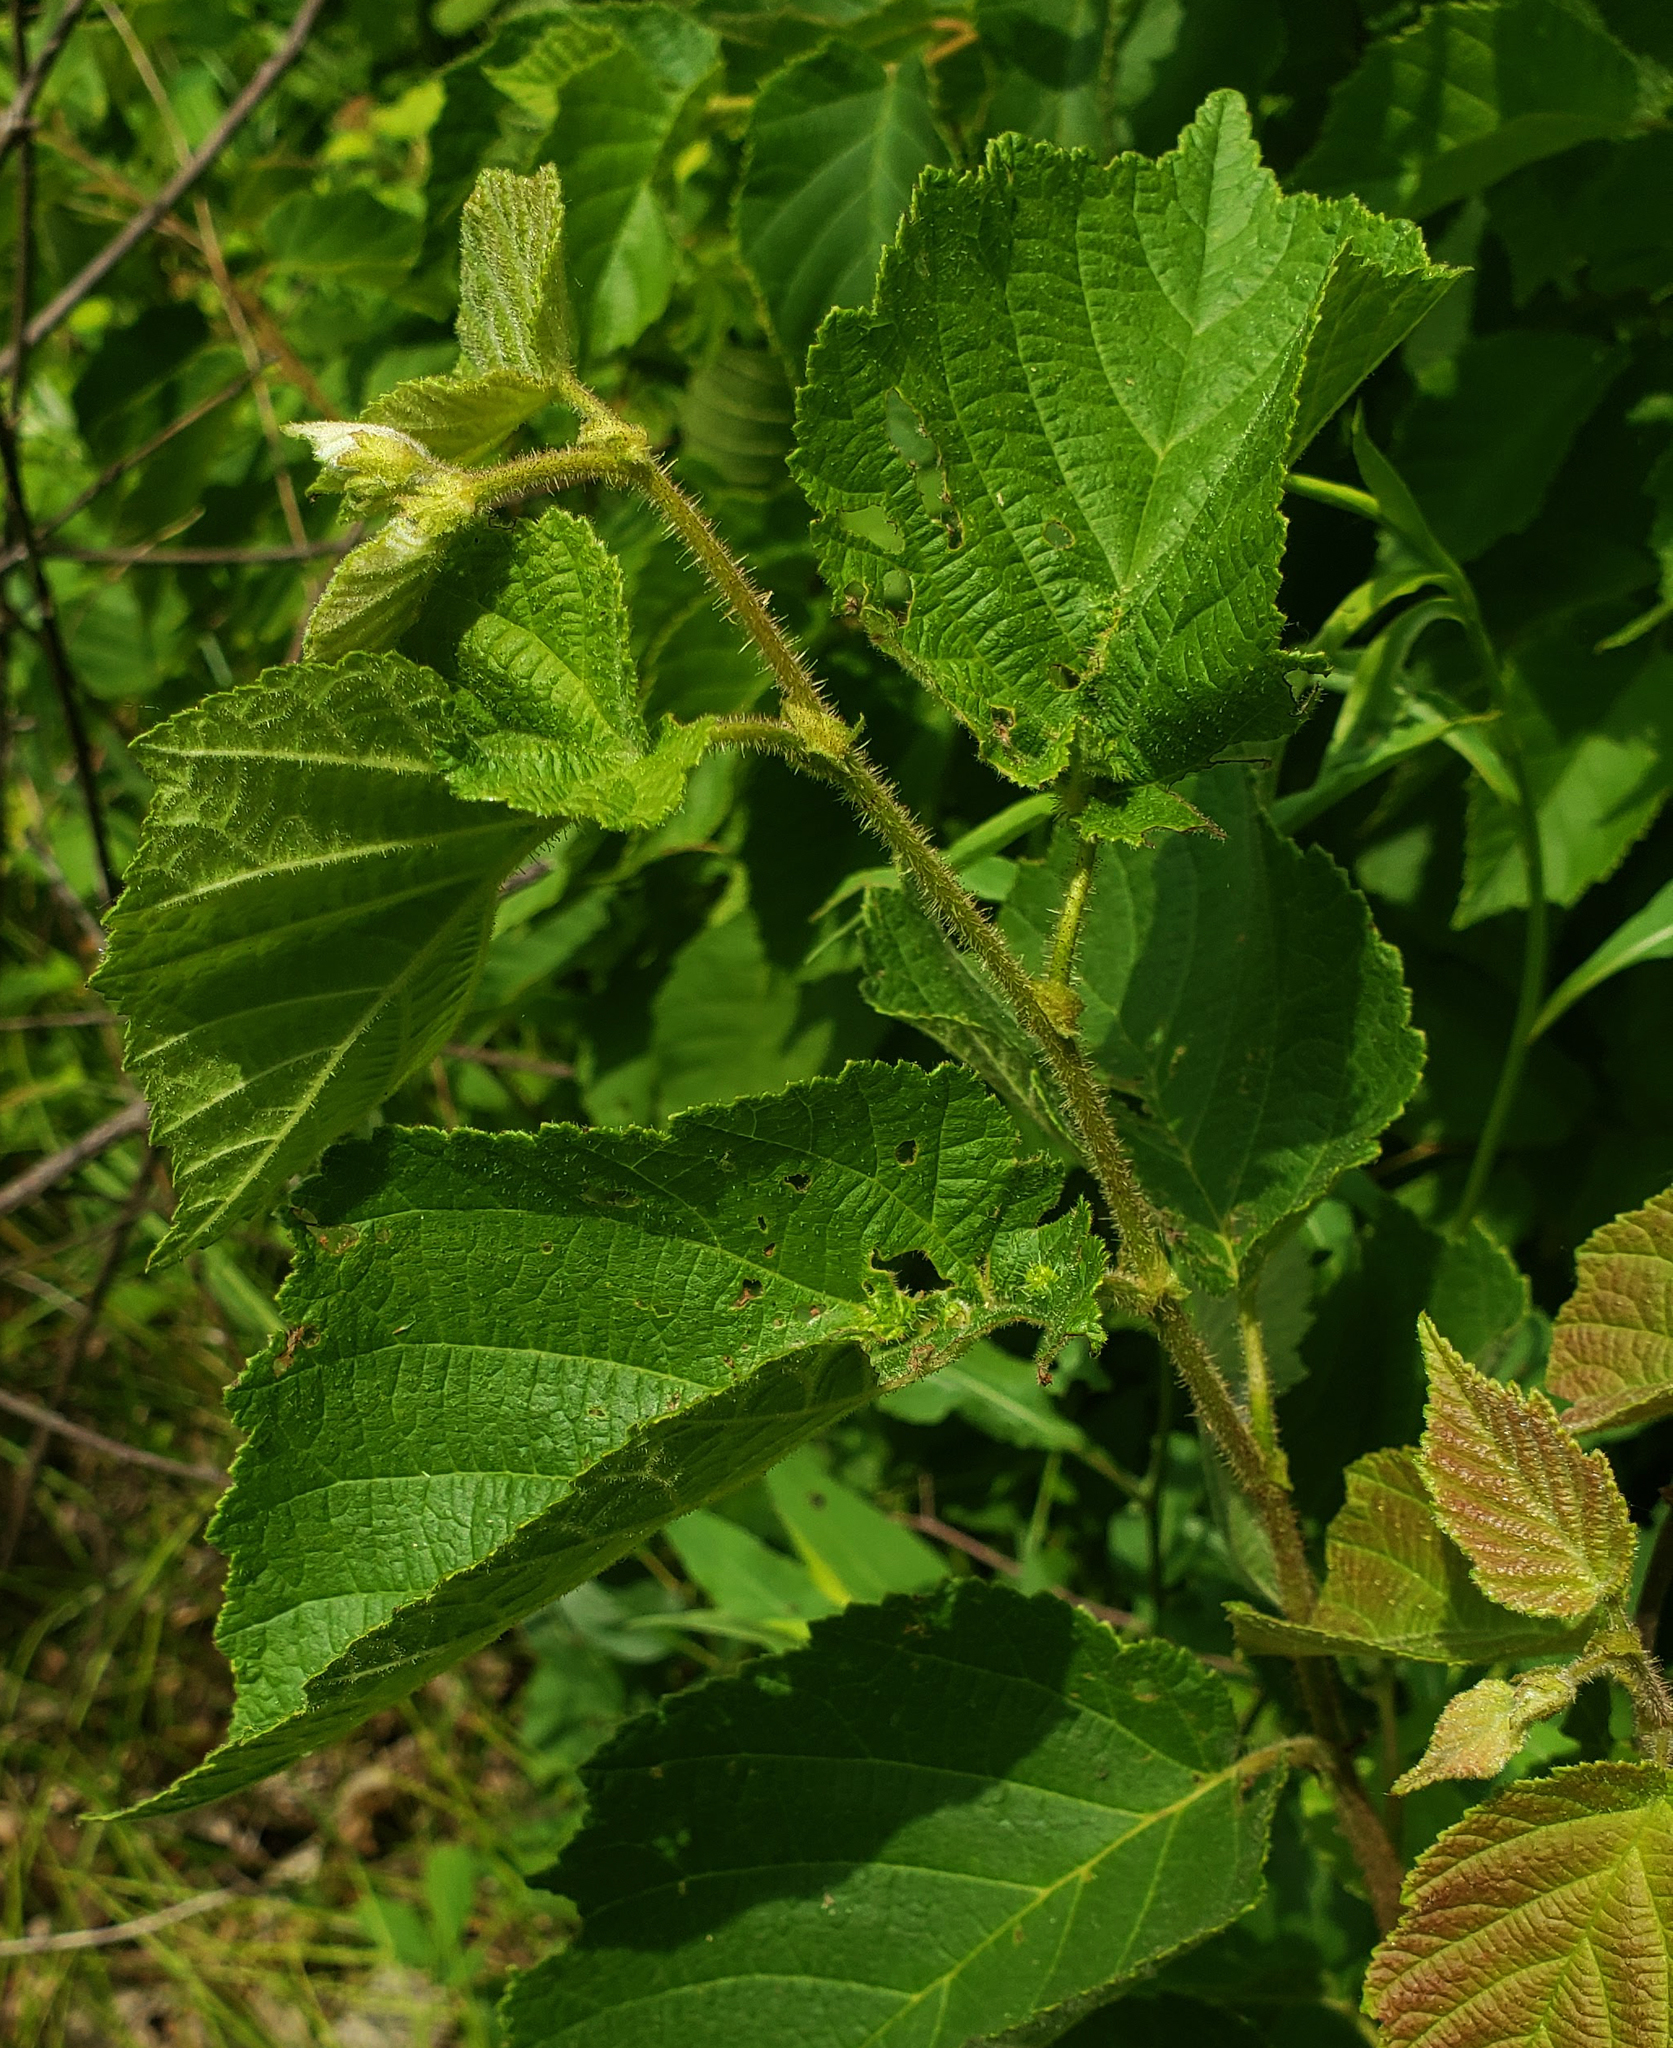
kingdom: Plantae
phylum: Tracheophyta
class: Magnoliopsida
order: Fagales
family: Betulaceae
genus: Corylus
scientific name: Corylus americana
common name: American hazel
